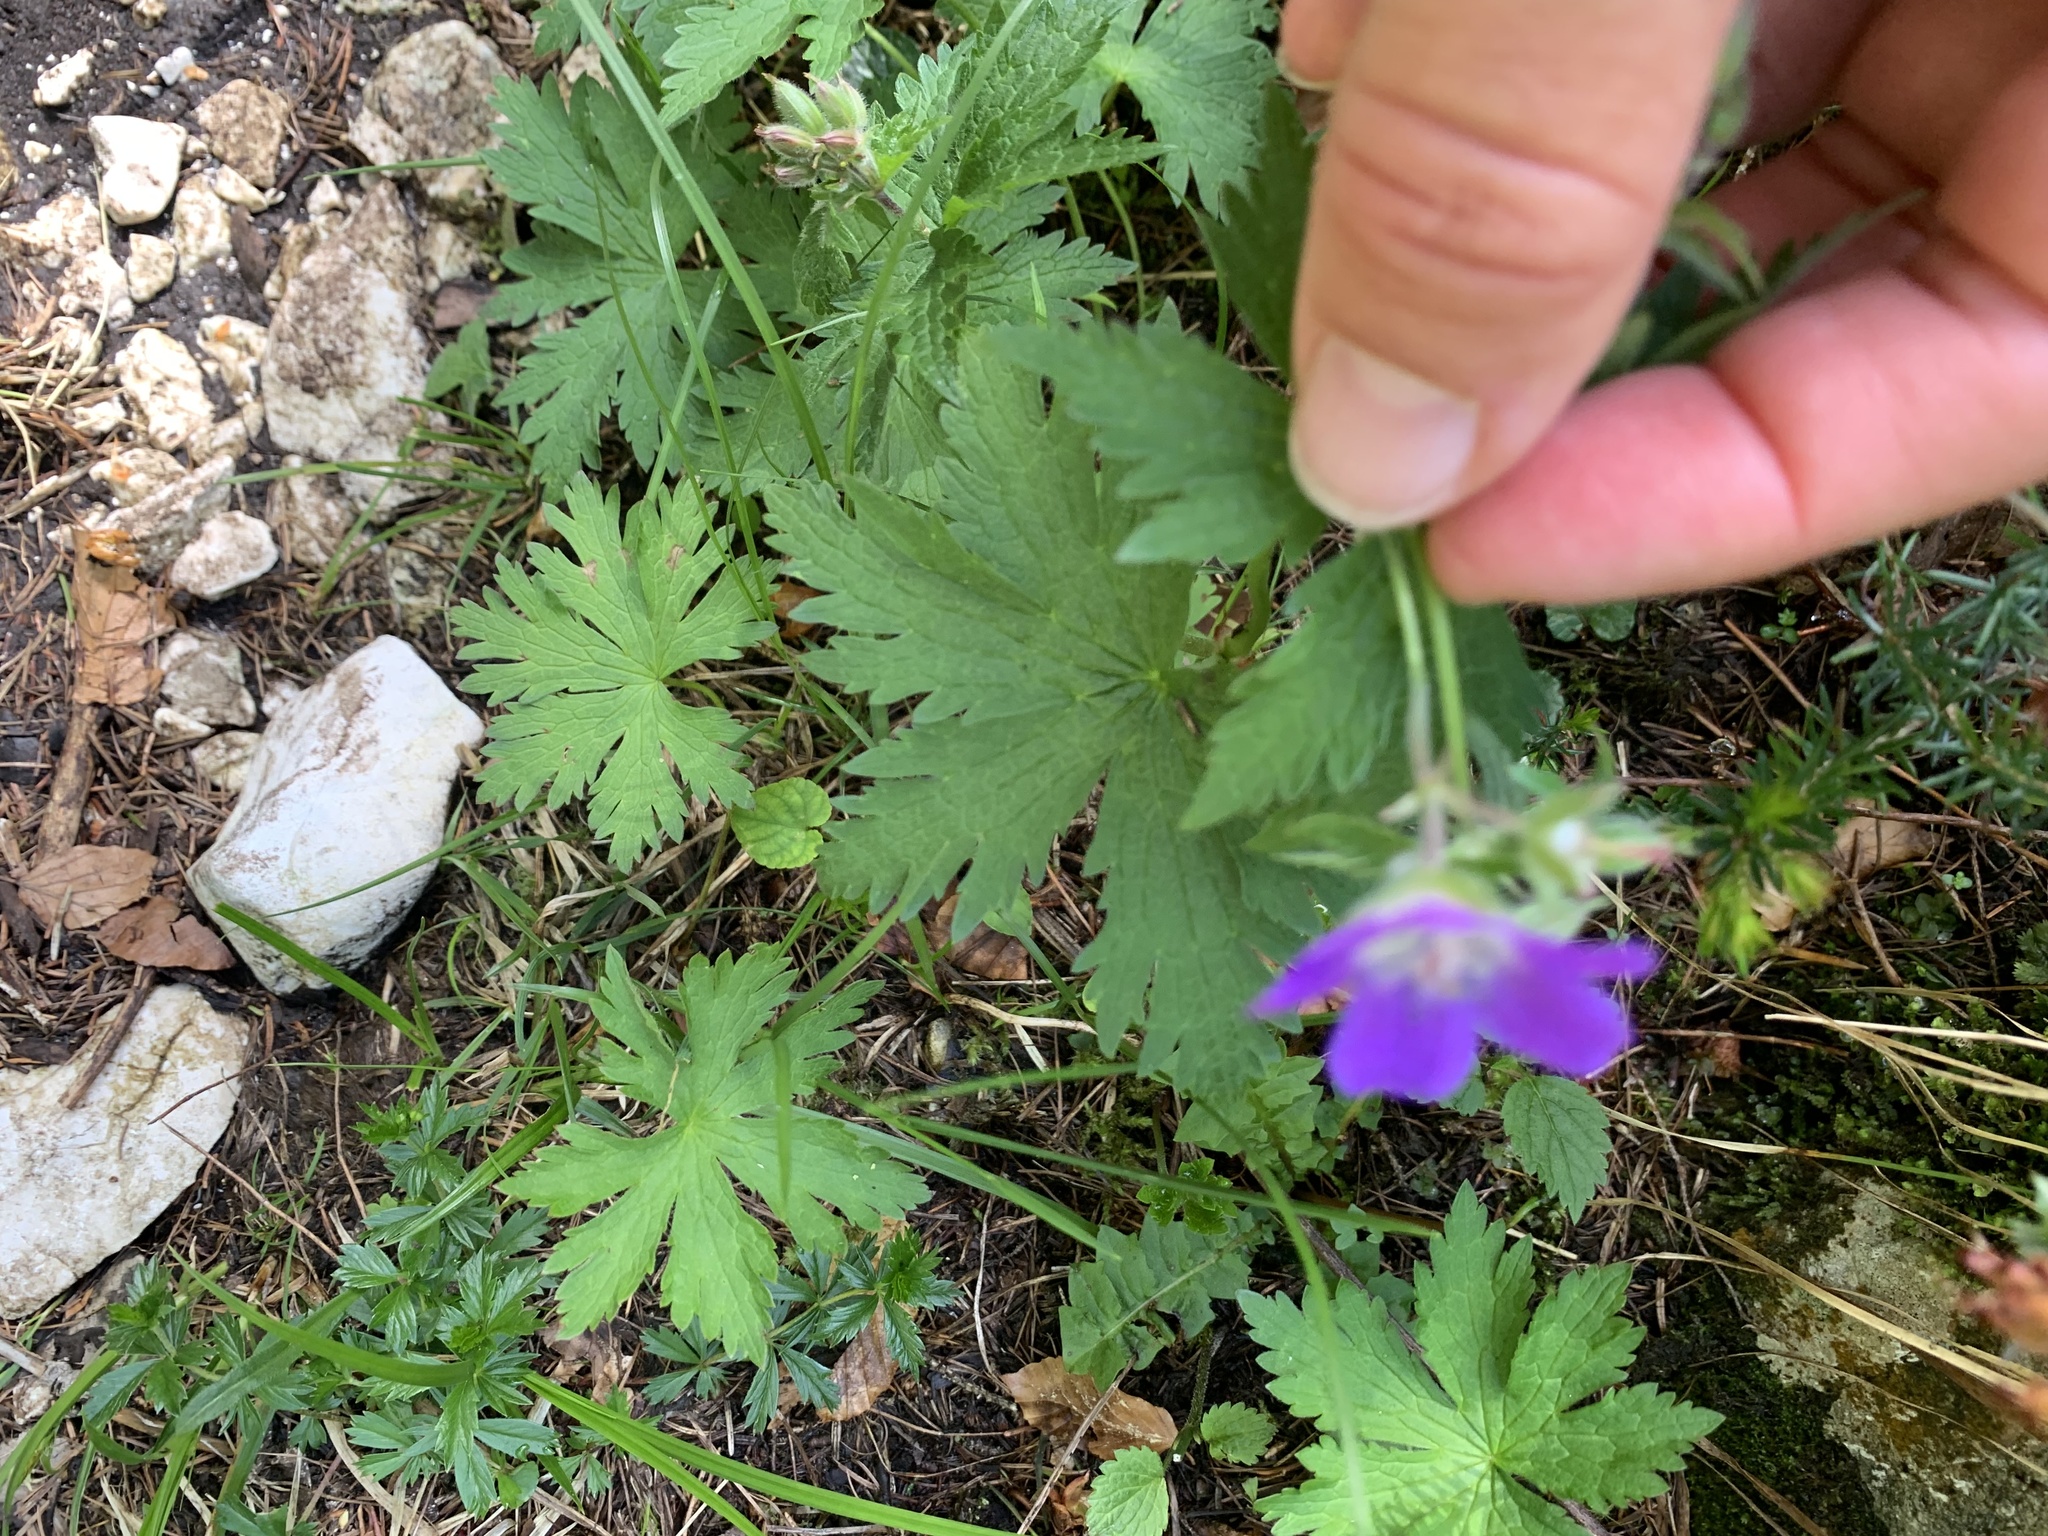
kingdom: Plantae
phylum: Tracheophyta
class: Magnoliopsida
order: Geraniales
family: Geraniaceae
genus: Geranium
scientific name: Geranium sylvaticum
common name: Wood crane's-bill
